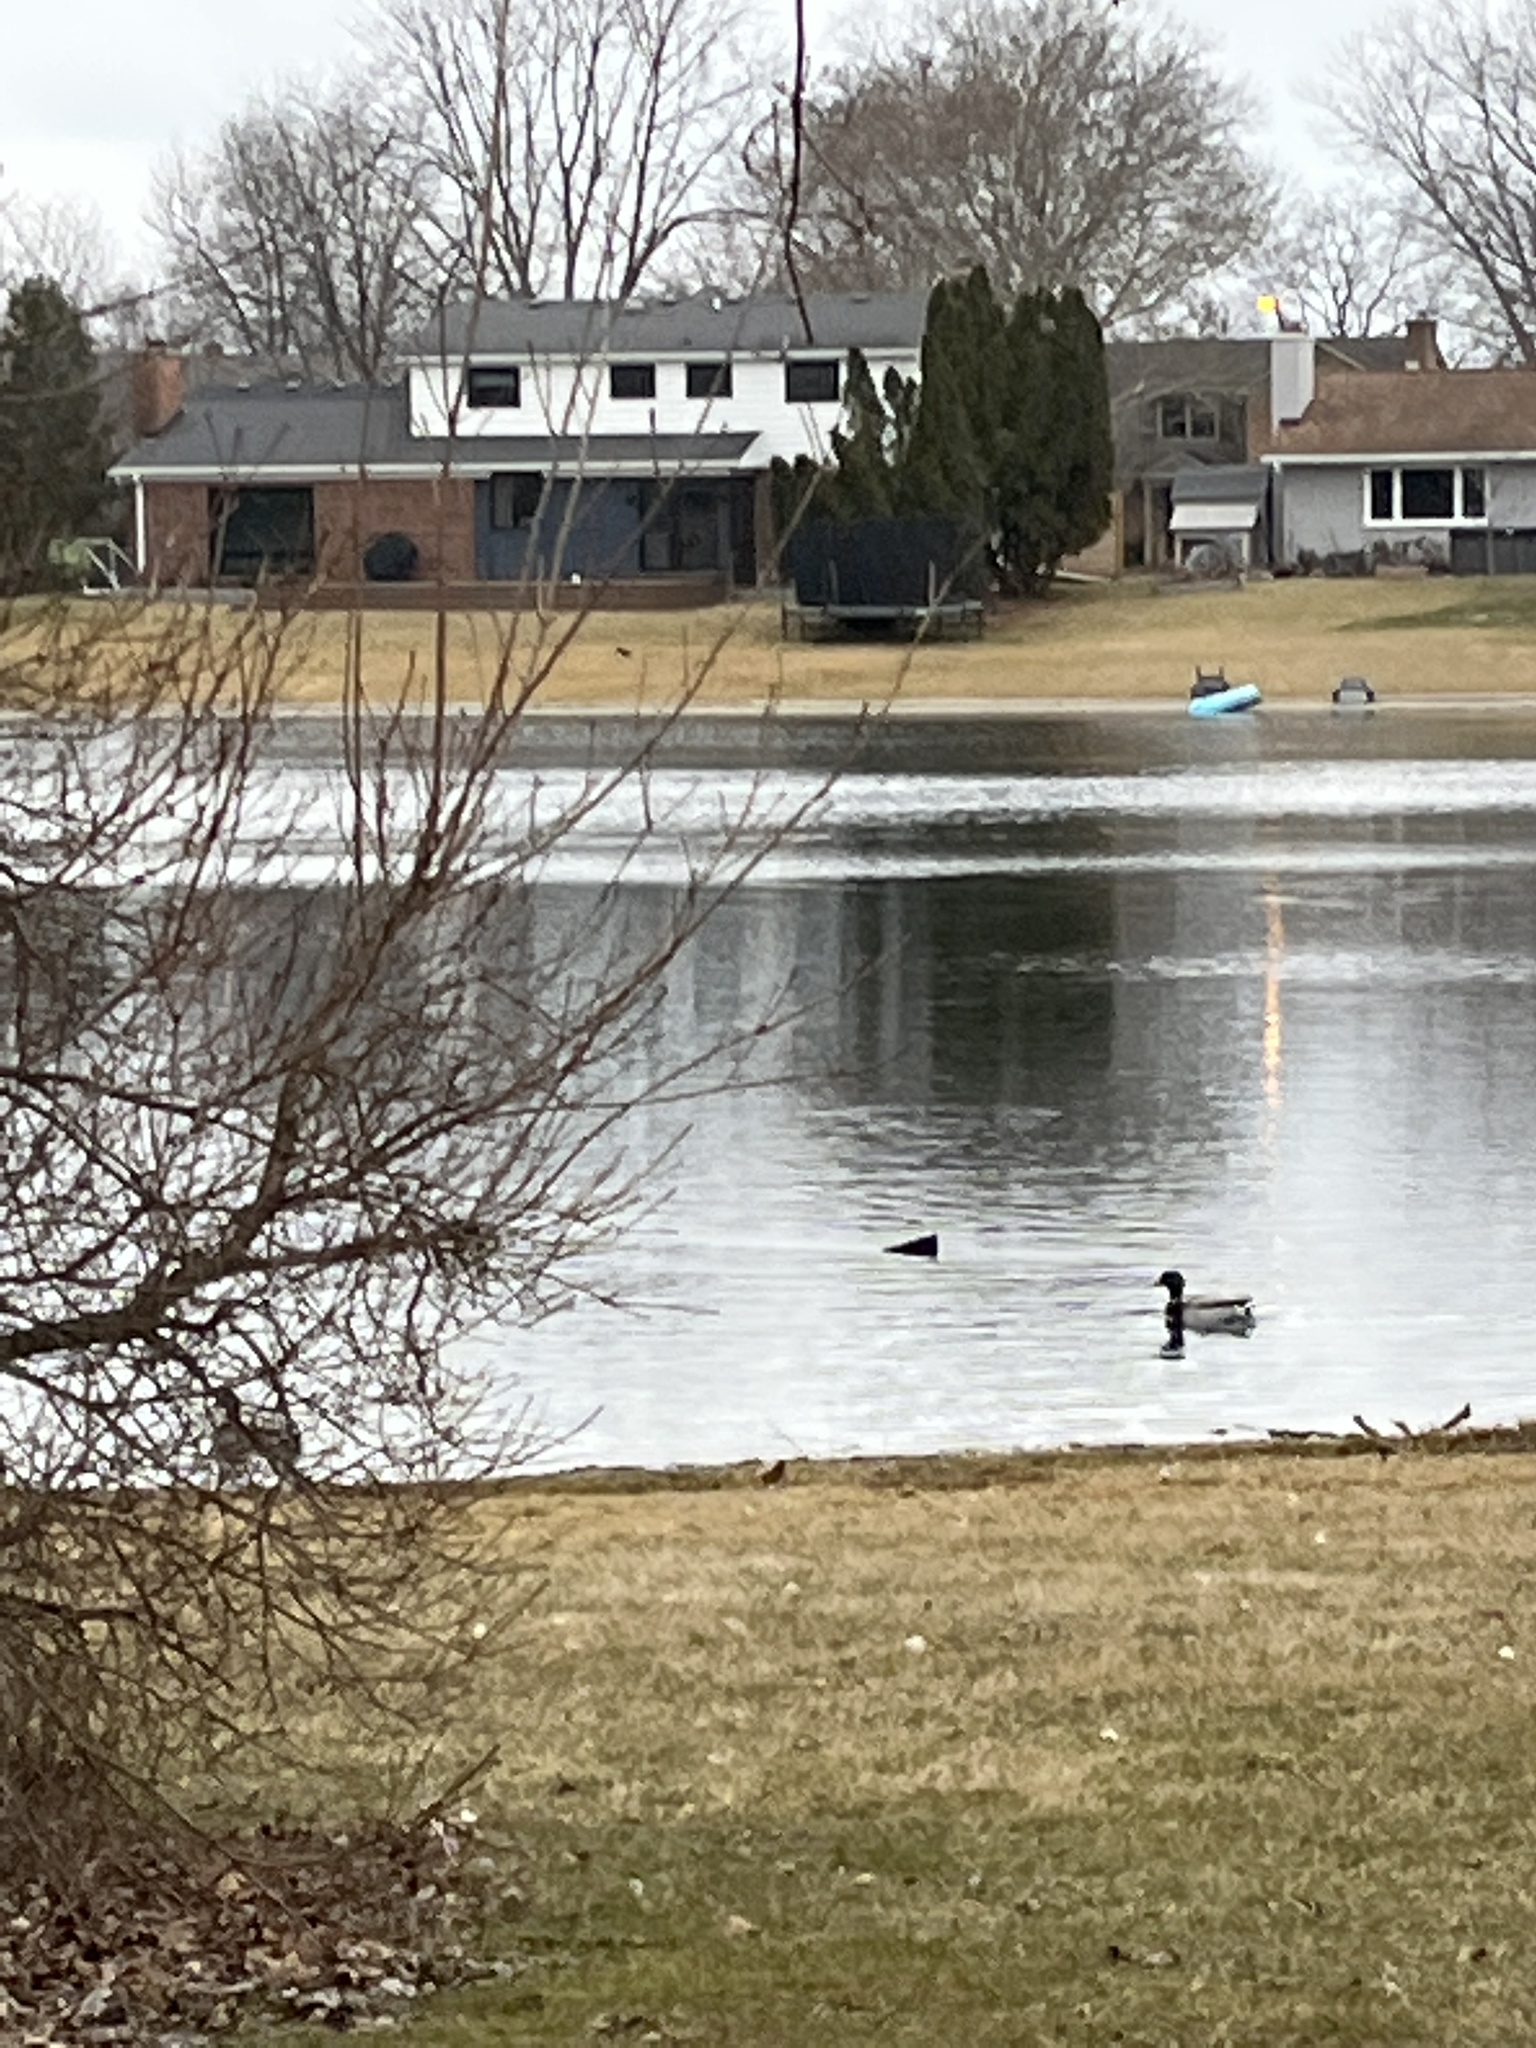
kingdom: Animalia
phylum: Chordata
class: Aves
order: Anseriformes
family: Anatidae
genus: Anas
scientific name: Anas platyrhynchos
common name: Mallard
